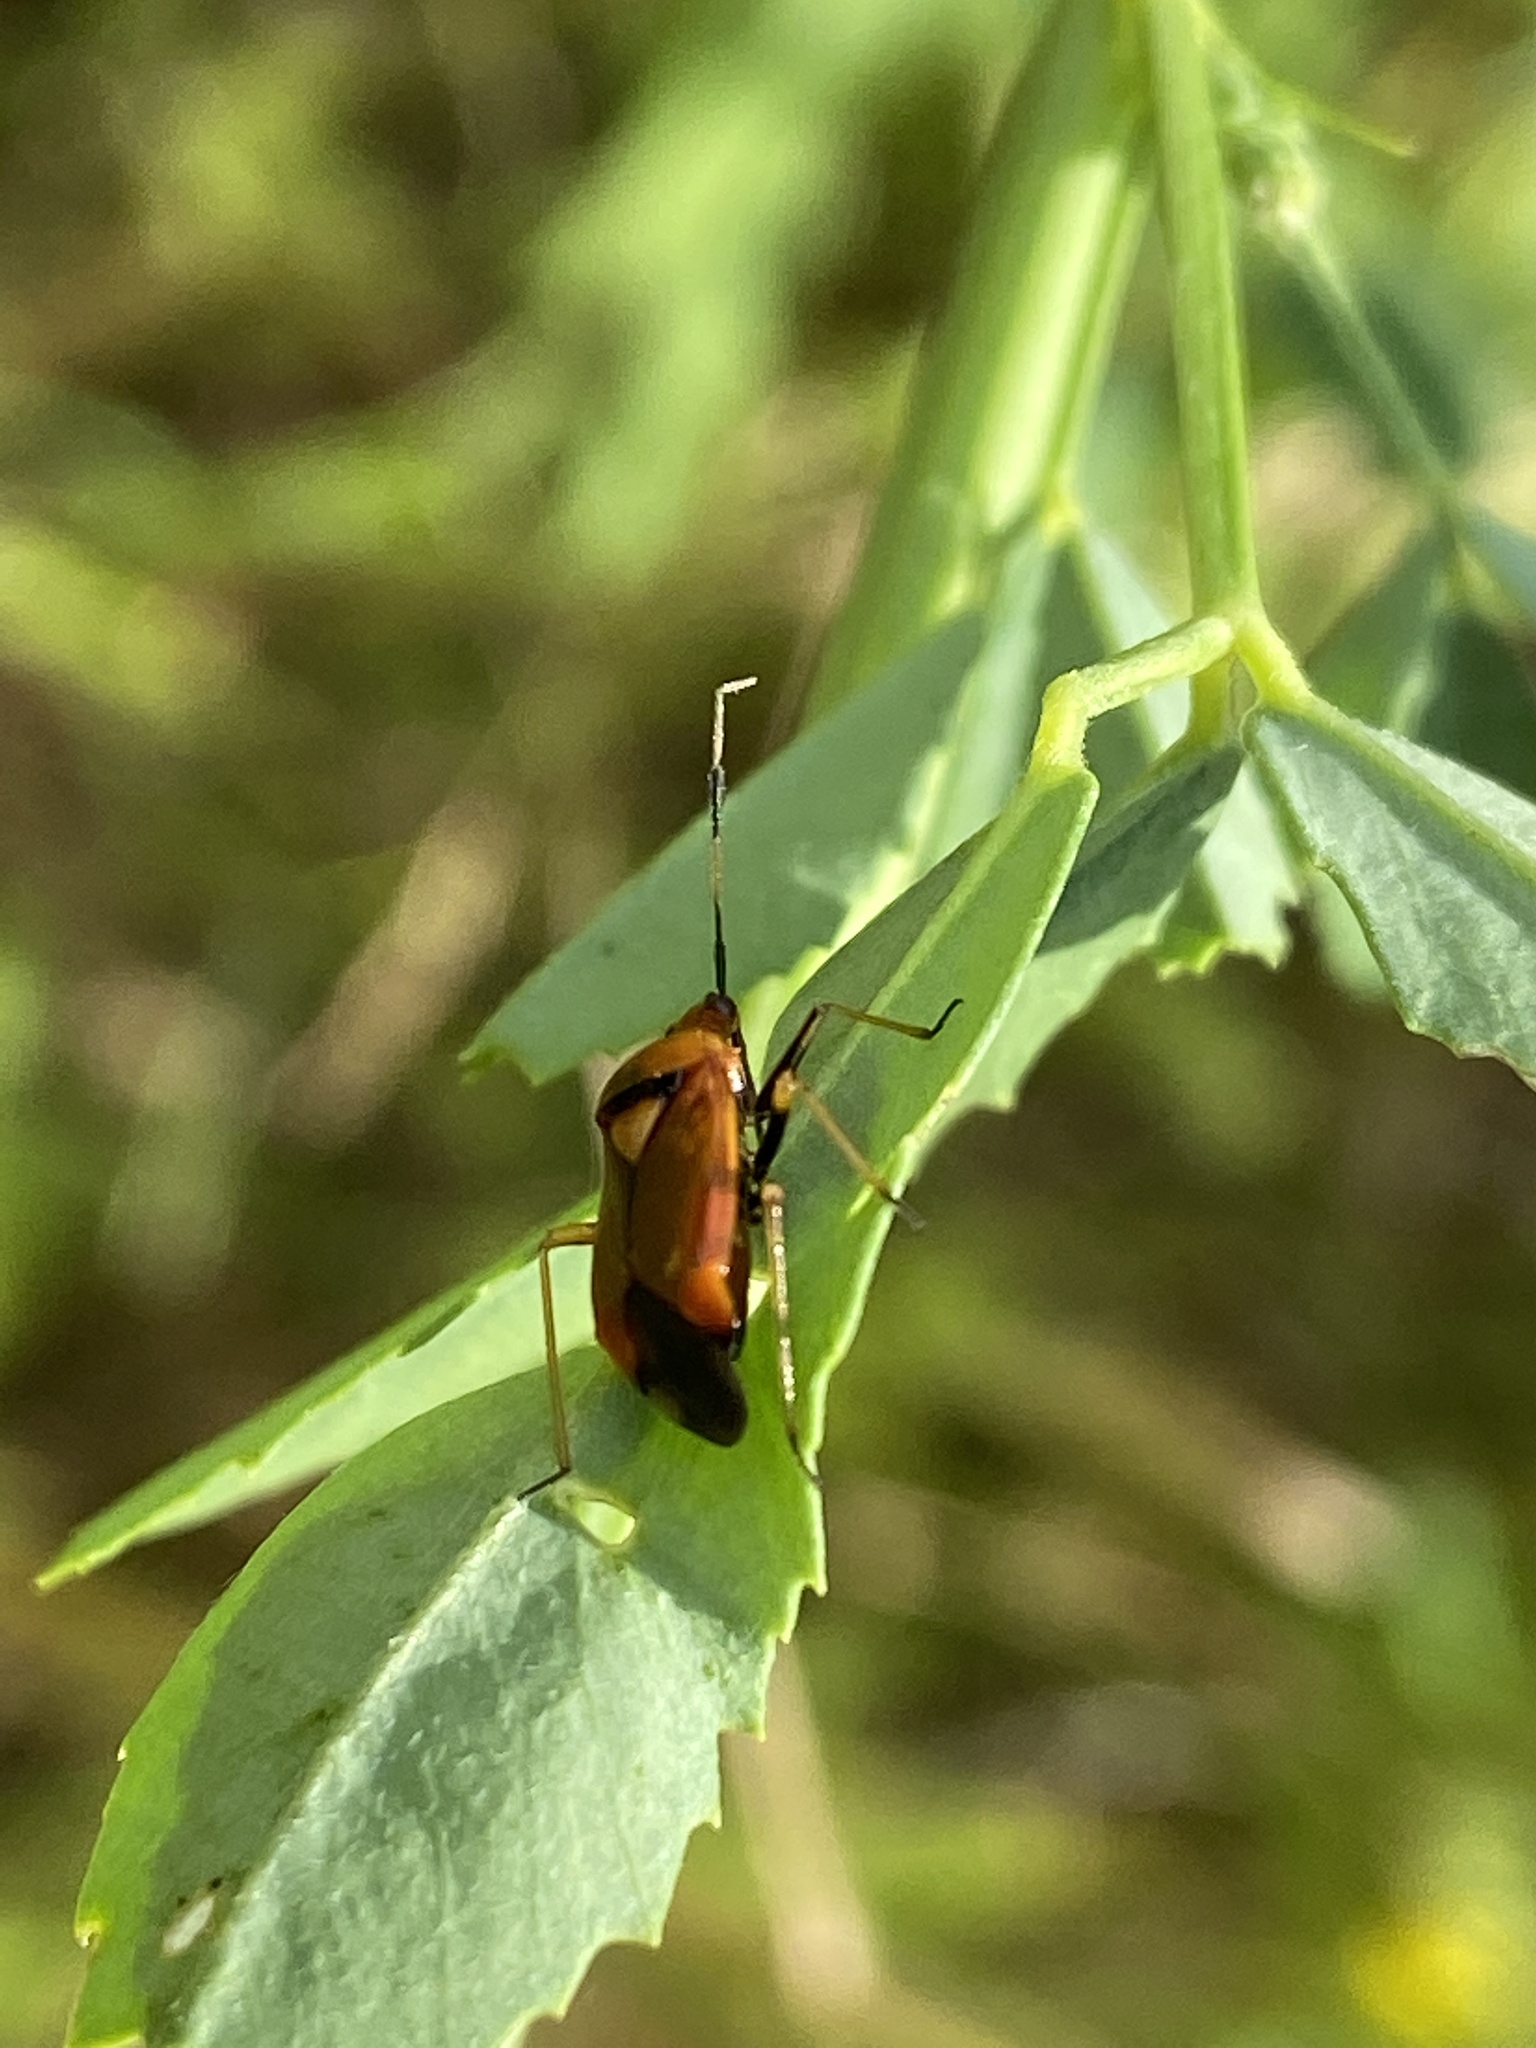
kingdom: Animalia
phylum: Arthropoda
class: Insecta
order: Hemiptera
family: Miridae
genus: Deraeocoris
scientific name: Deraeocoris ruber
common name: Plant bug
